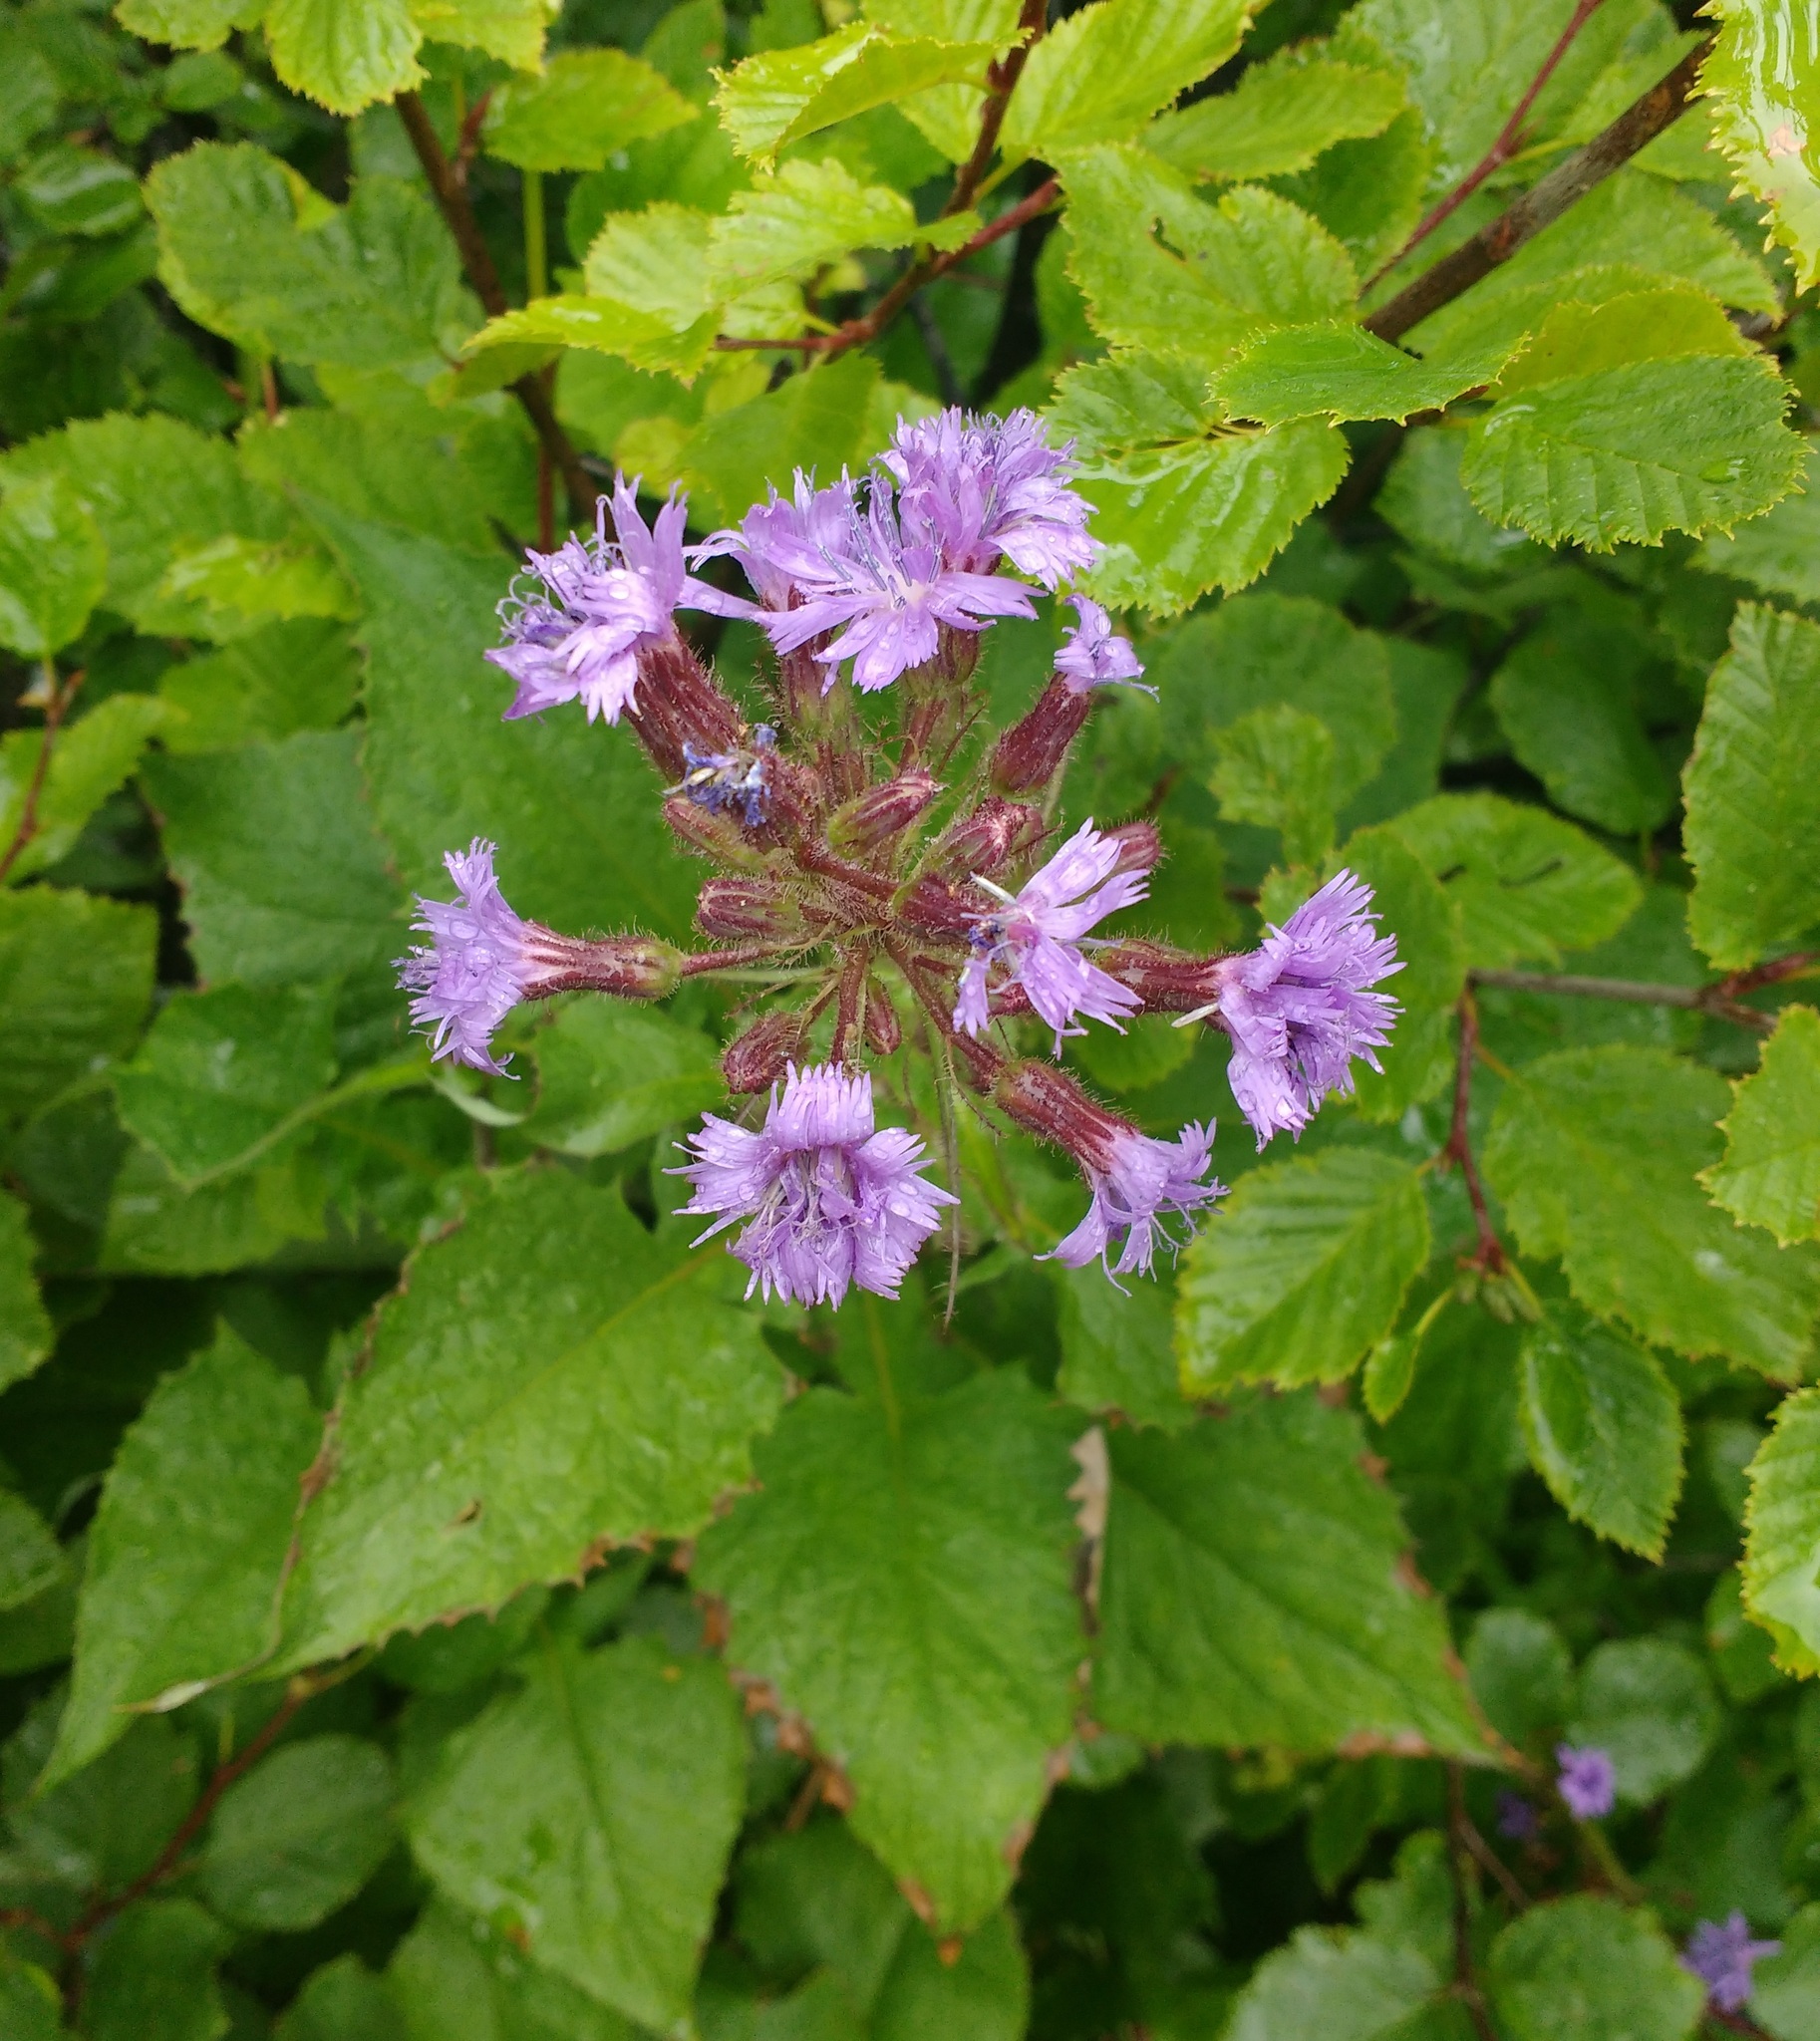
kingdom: Plantae
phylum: Tracheophyta
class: Magnoliopsida
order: Asterales
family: Asteraceae
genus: Cicerbita
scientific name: Cicerbita alpina
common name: Alpine blue-sow-thistle
